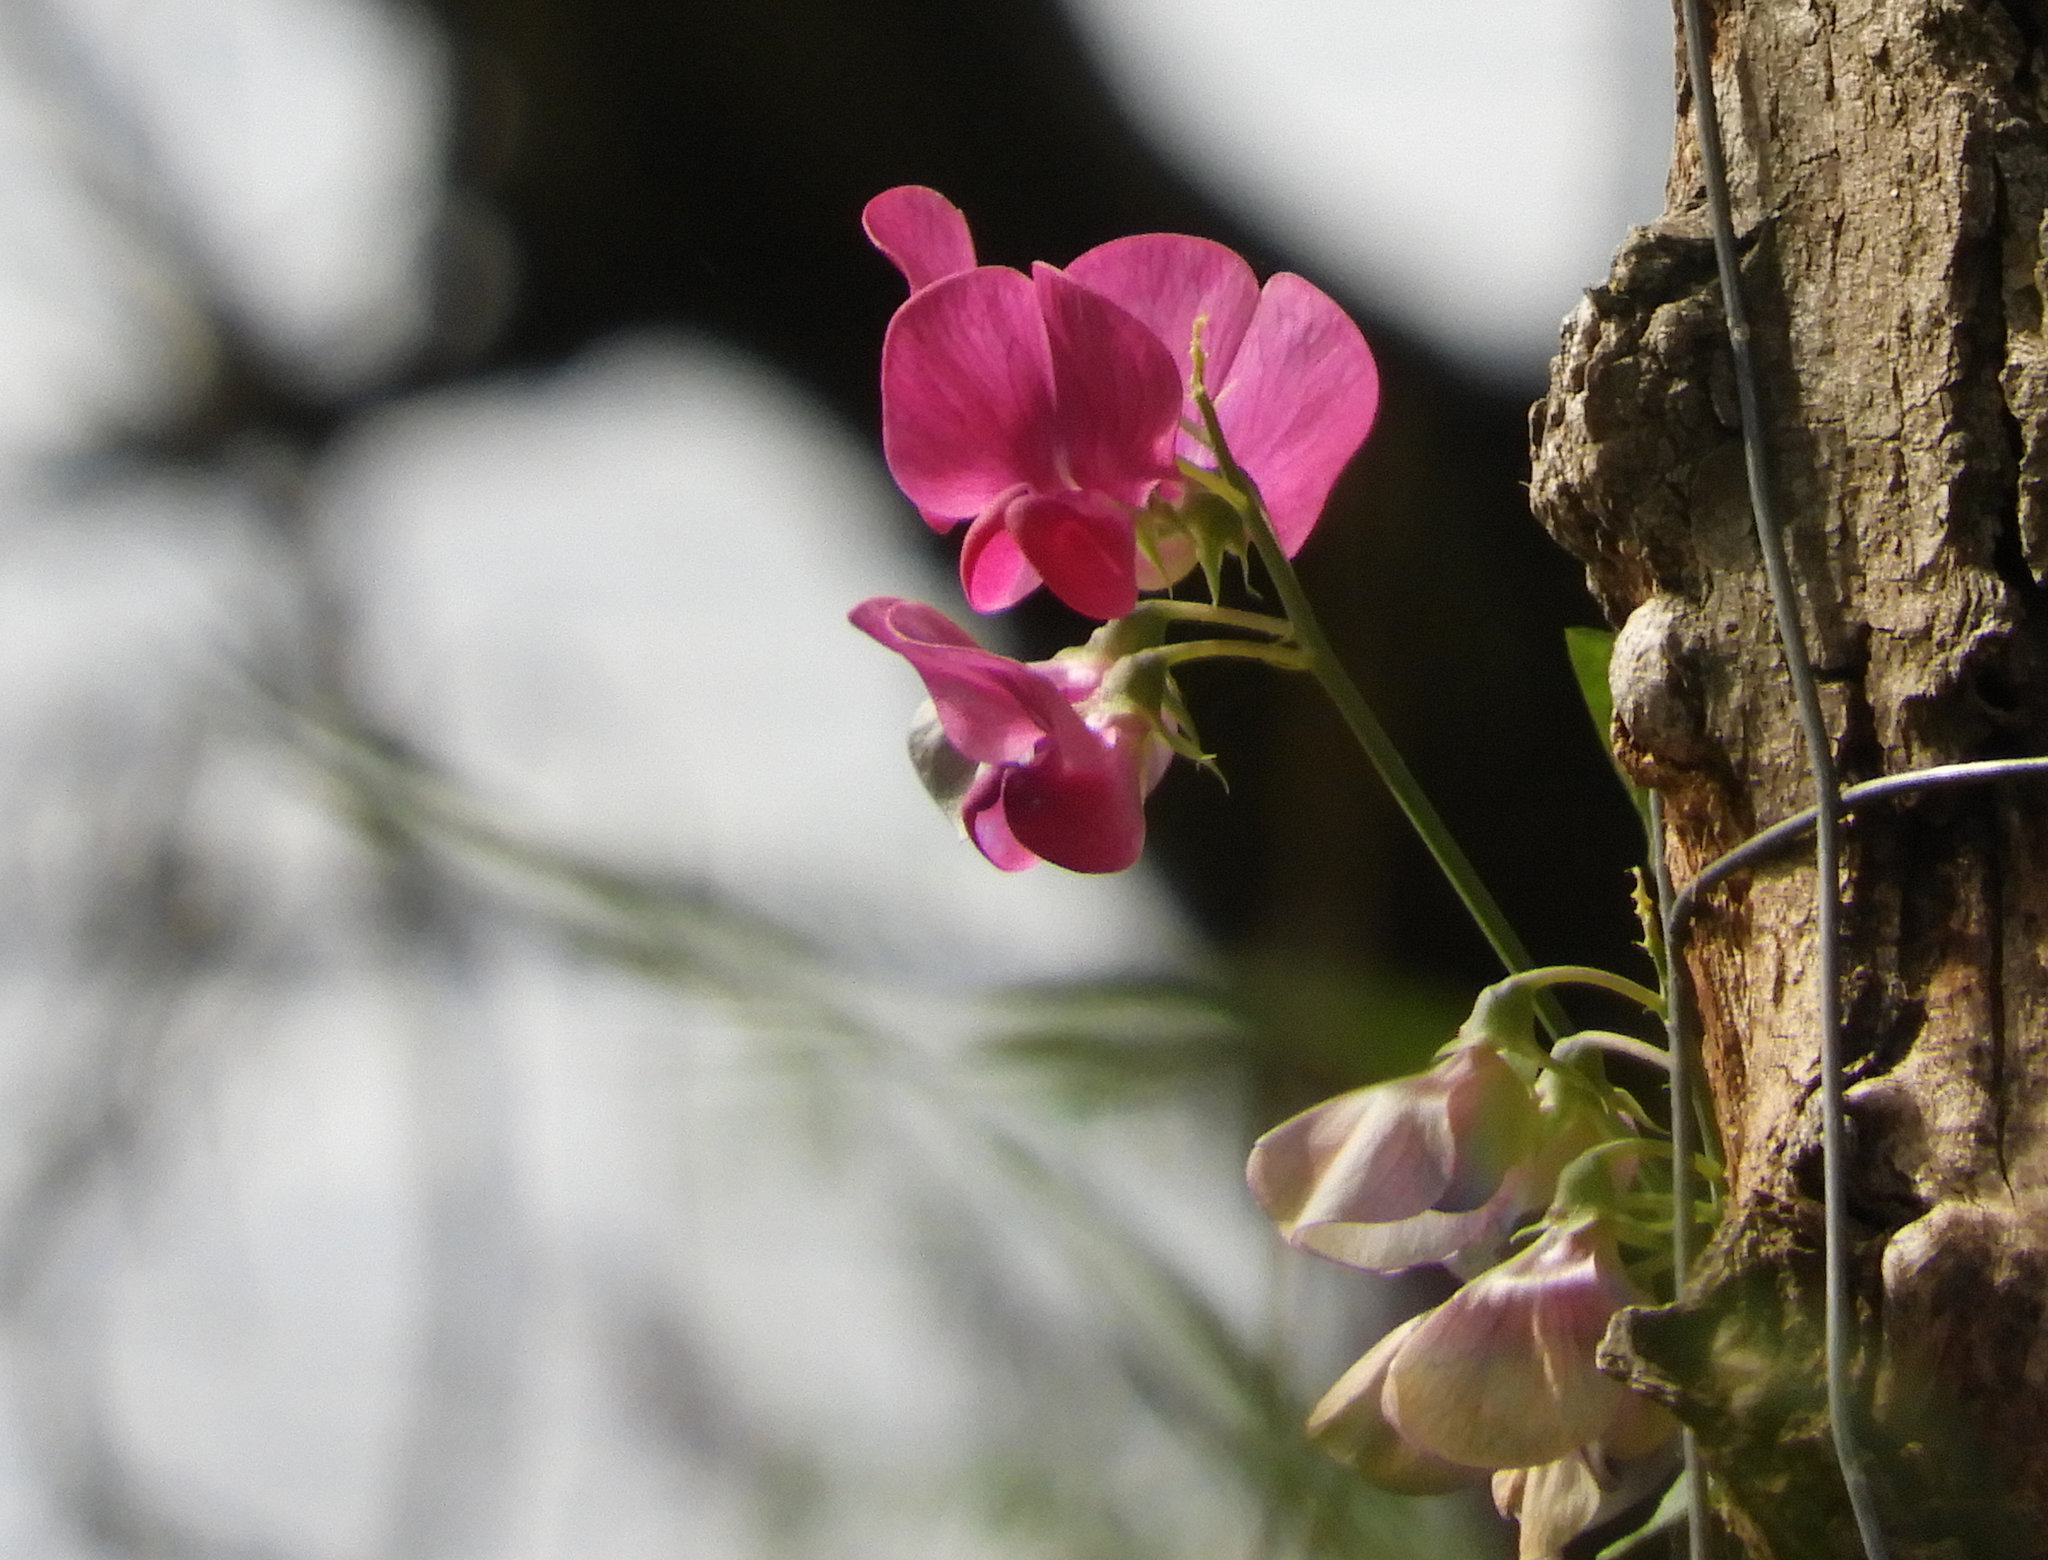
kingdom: Plantae
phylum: Tracheophyta
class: Magnoliopsida
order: Fabales
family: Fabaceae
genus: Lathyrus
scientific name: Lathyrus latifolius
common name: Perennial pea
